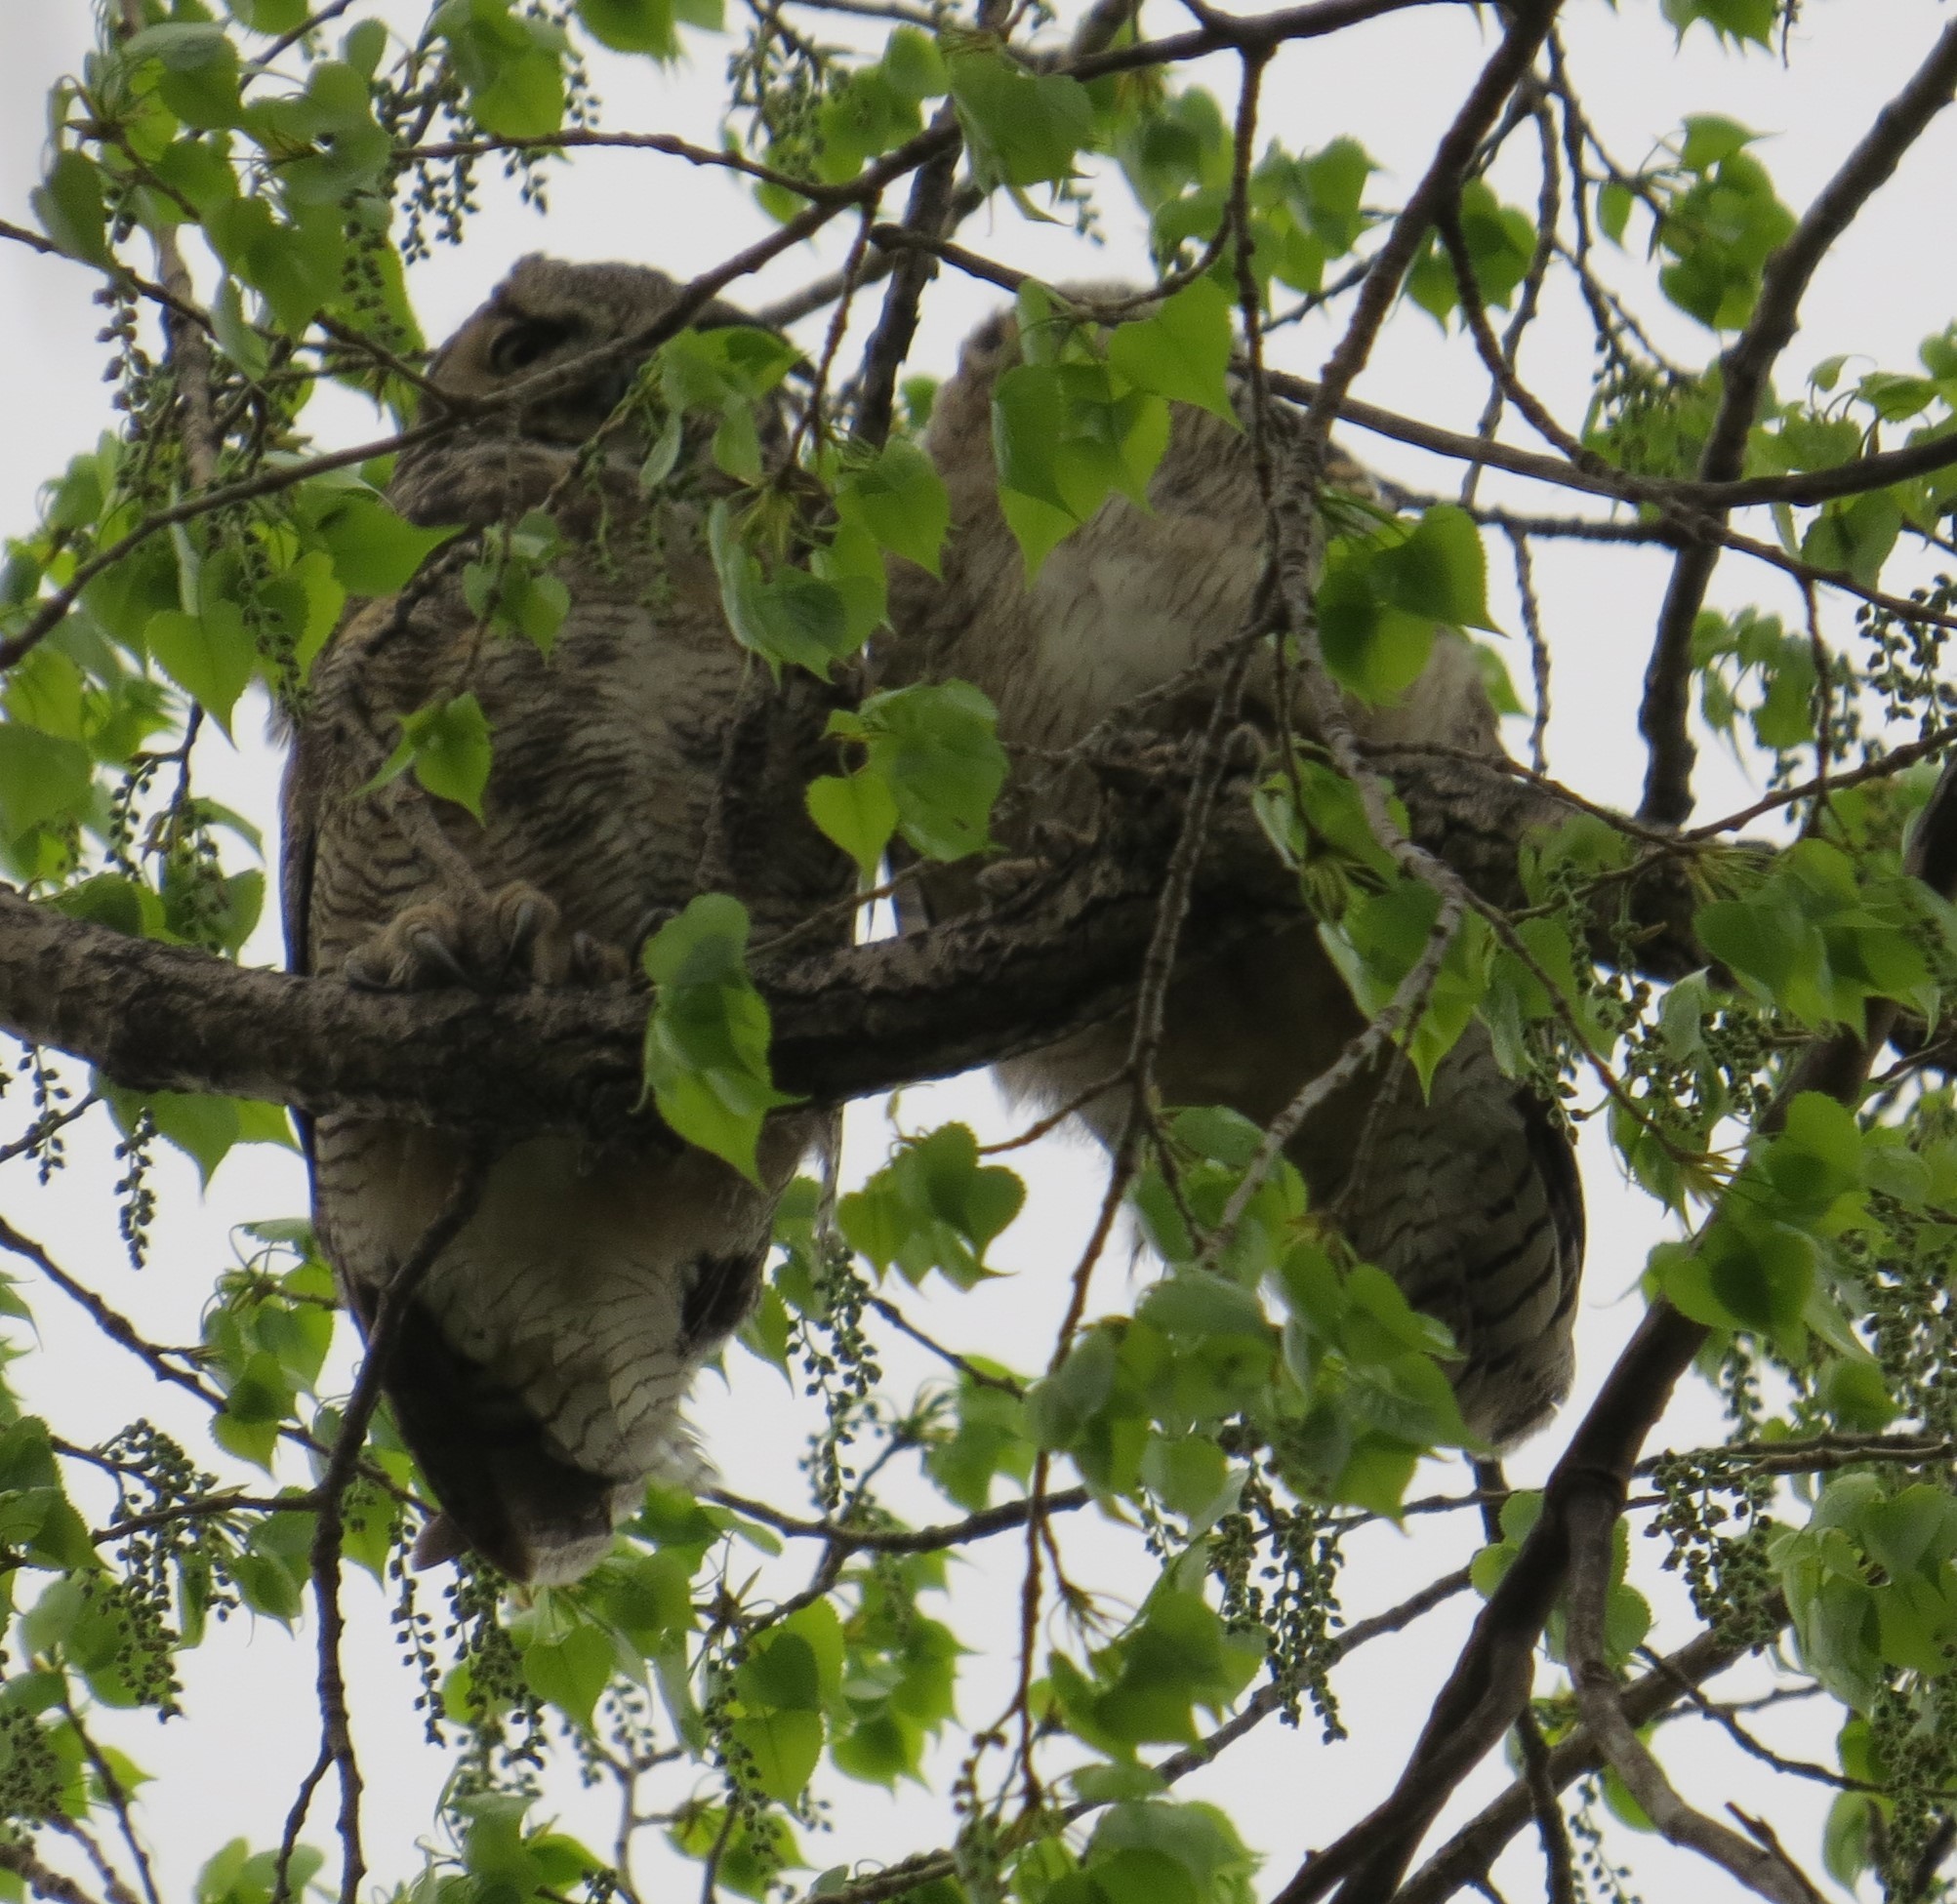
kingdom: Animalia
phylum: Chordata
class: Aves
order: Strigiformes
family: Strigidae
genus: Bubo
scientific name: Bubo virginianus
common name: Great horned owl
